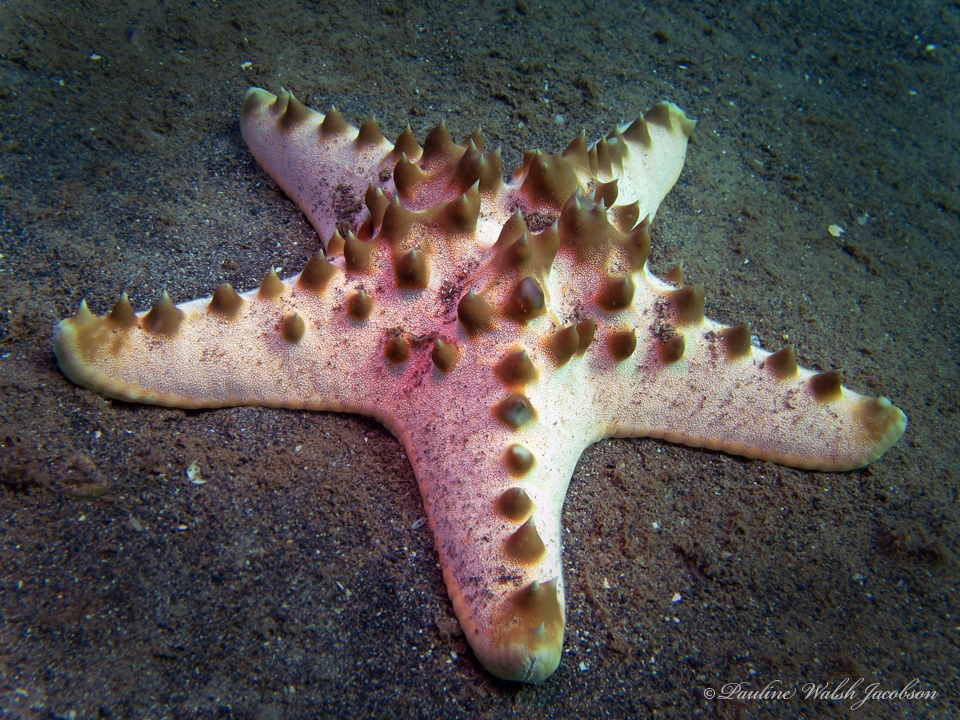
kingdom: Animalia
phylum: Echinodermata
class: Asteroidea
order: Valvatida
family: Oreasteridae
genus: Protoreaster
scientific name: Protoreaster nodosus
